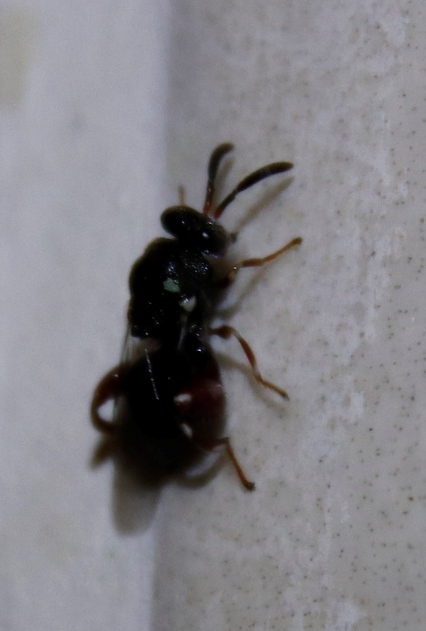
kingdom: Animalia
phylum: Arthropoda
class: Insecta
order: Hymenoptera
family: Chalcididae
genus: Brachymeria
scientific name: Brachymeria podagrica
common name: Chalcid wasp
